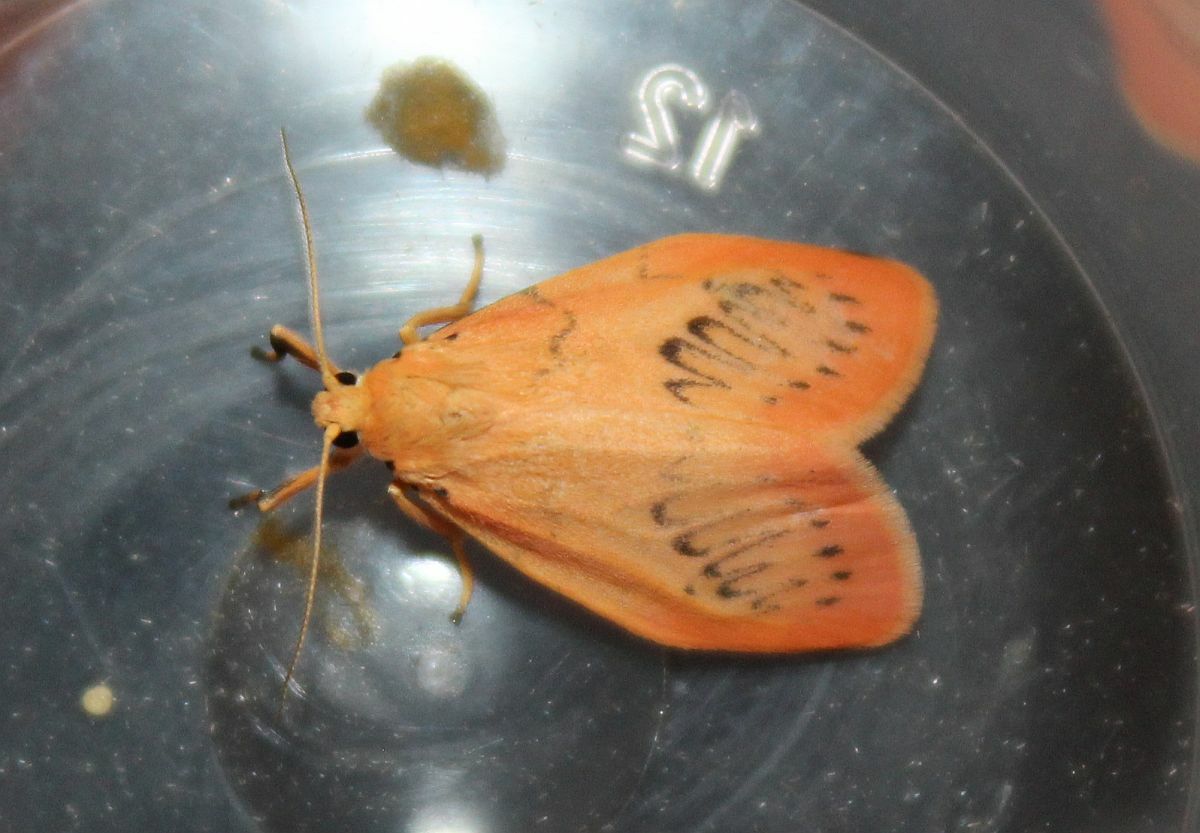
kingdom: Animalia
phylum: Arthropoda
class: Insecta
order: Lepidoptera
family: Erebidae
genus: Miltochrista
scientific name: Miltochrista miniata
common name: Rosy footman
